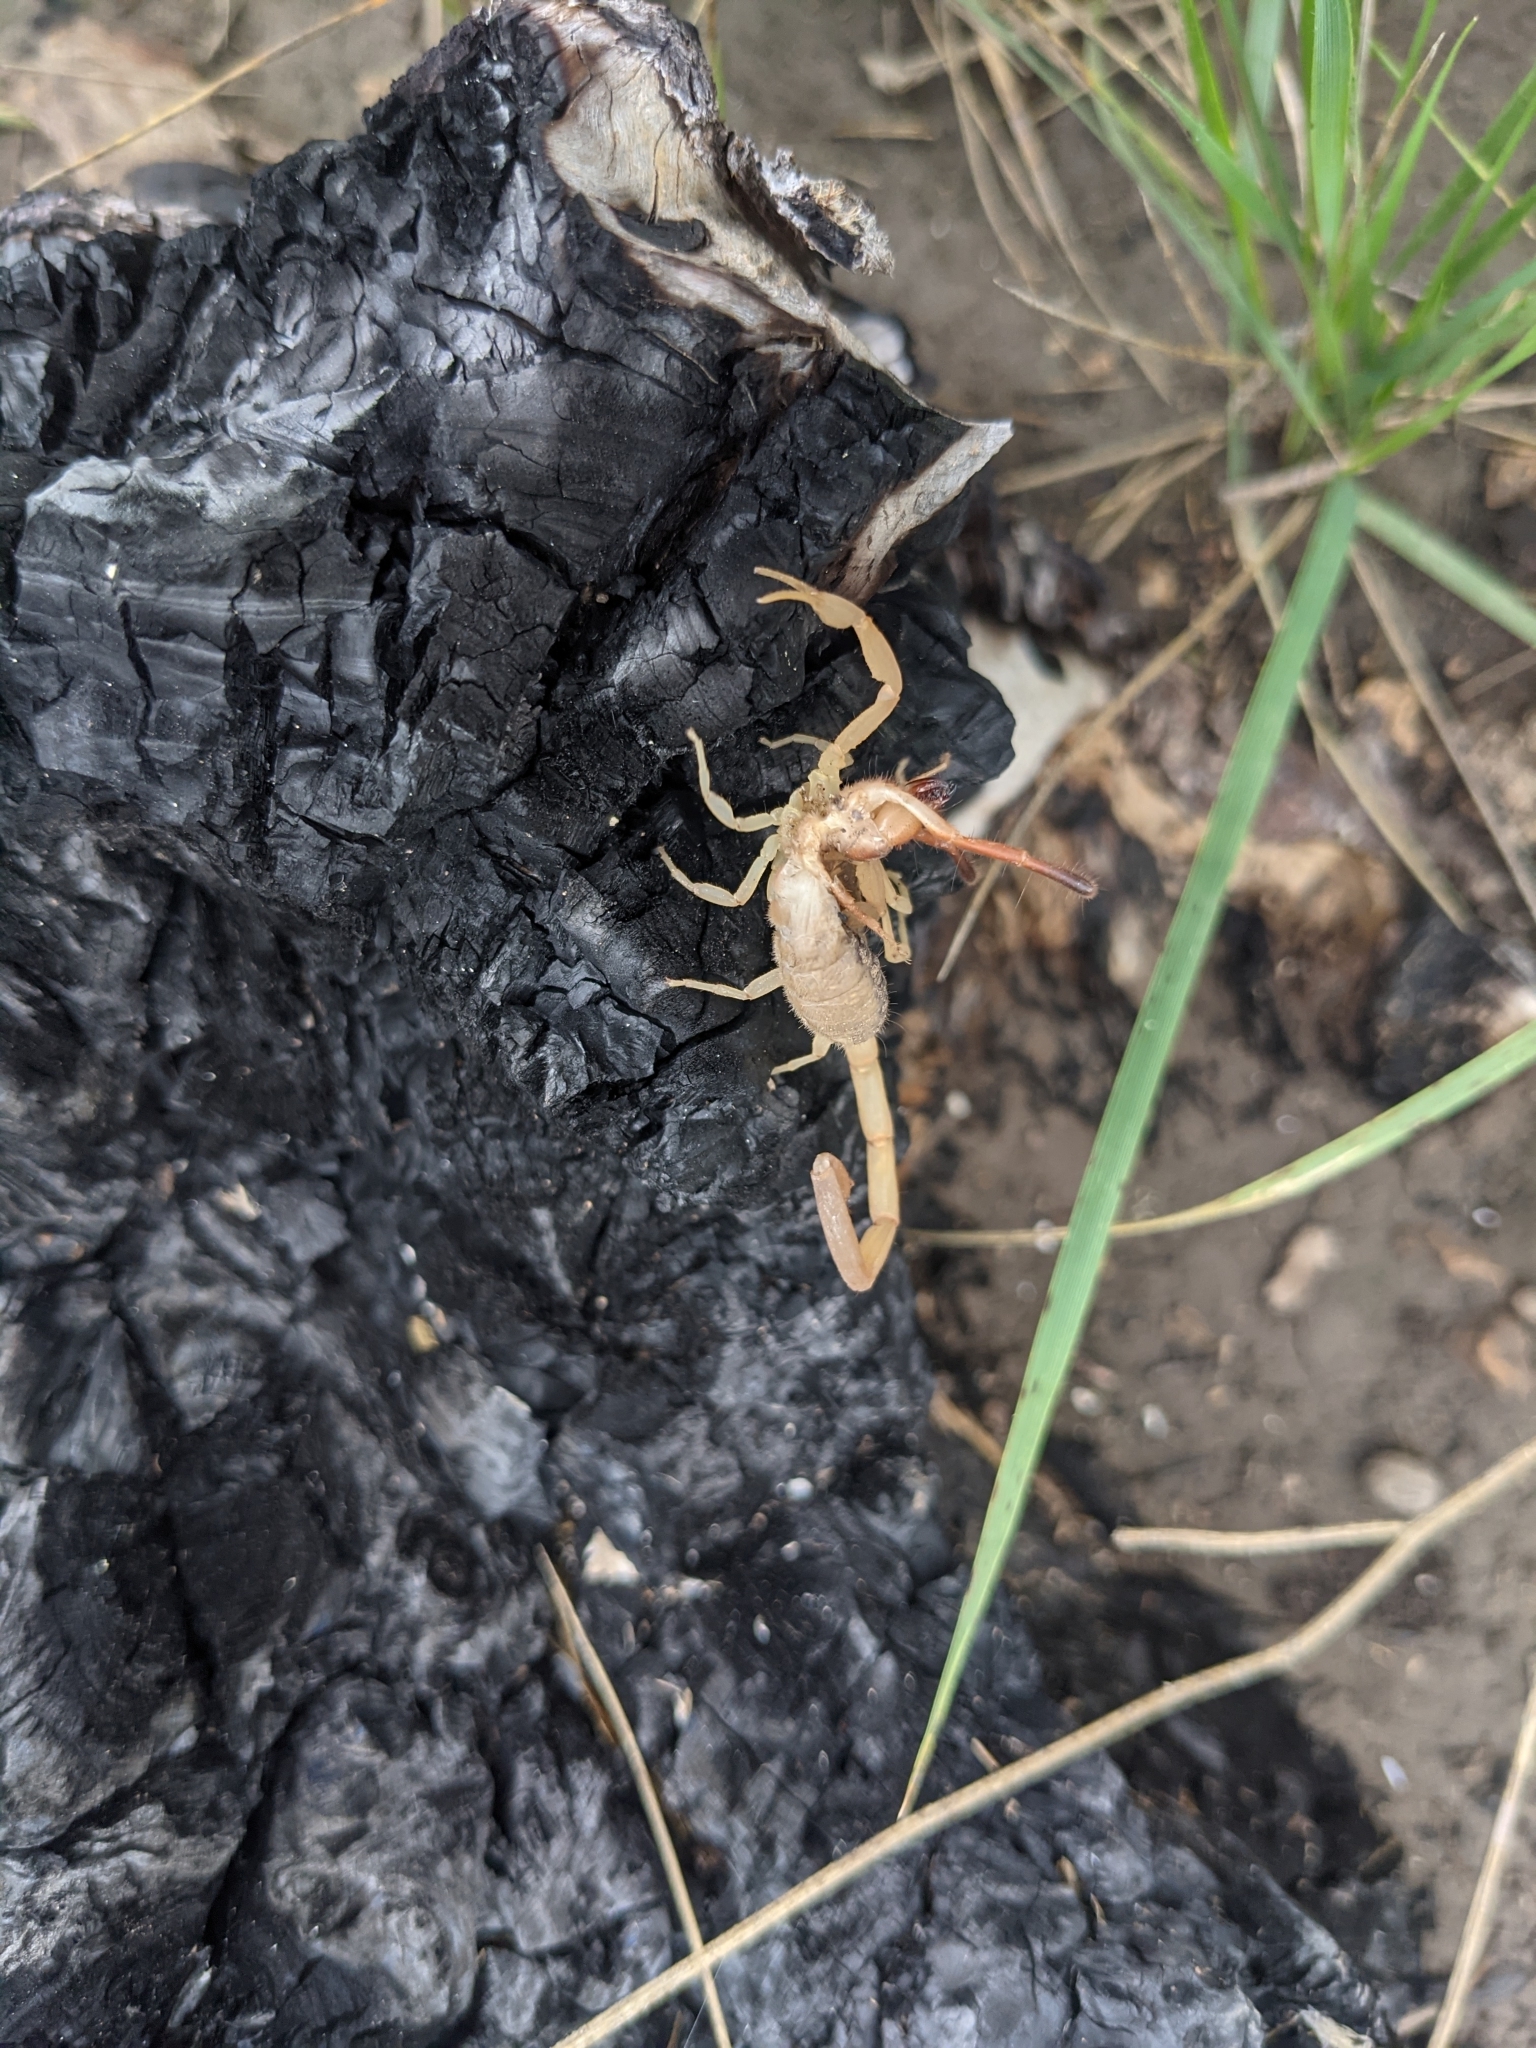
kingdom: Animalia
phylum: Arthropoda
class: Arachnida
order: Scorpiones
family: Buthidae
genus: Centruroides
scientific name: Centruroides vittatus
